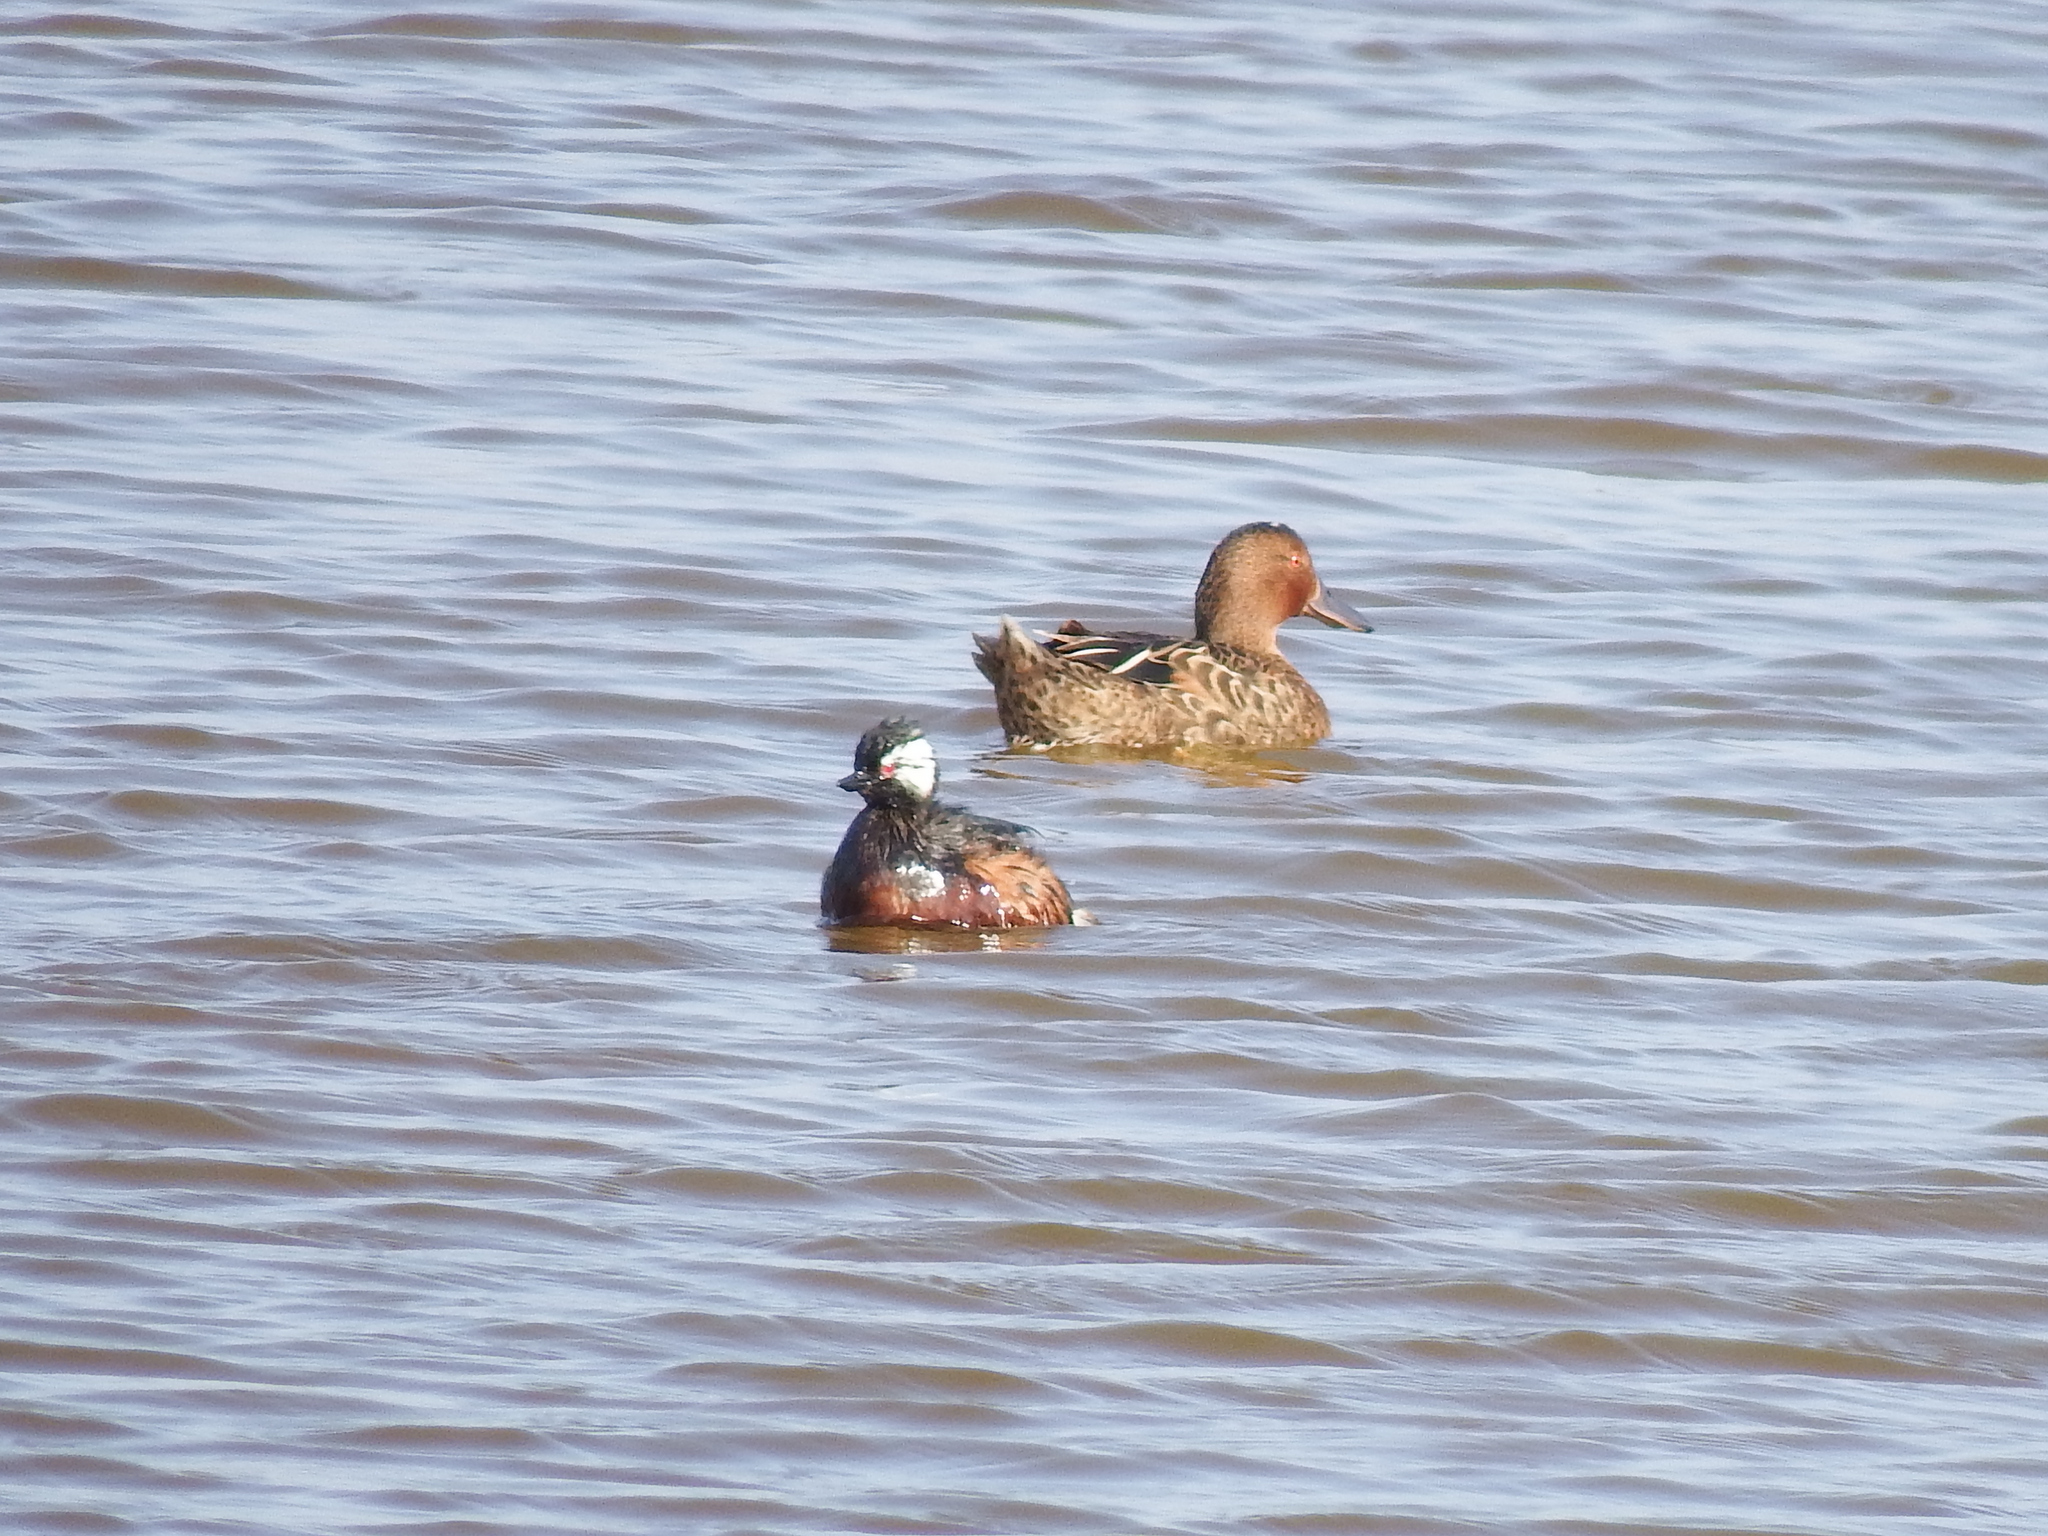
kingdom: Animalia
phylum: Chordata
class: Aves
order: Podicipediformes
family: Podicipedidae
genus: Rollandia
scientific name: Rollandia rolland
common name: White-tufted grebe
